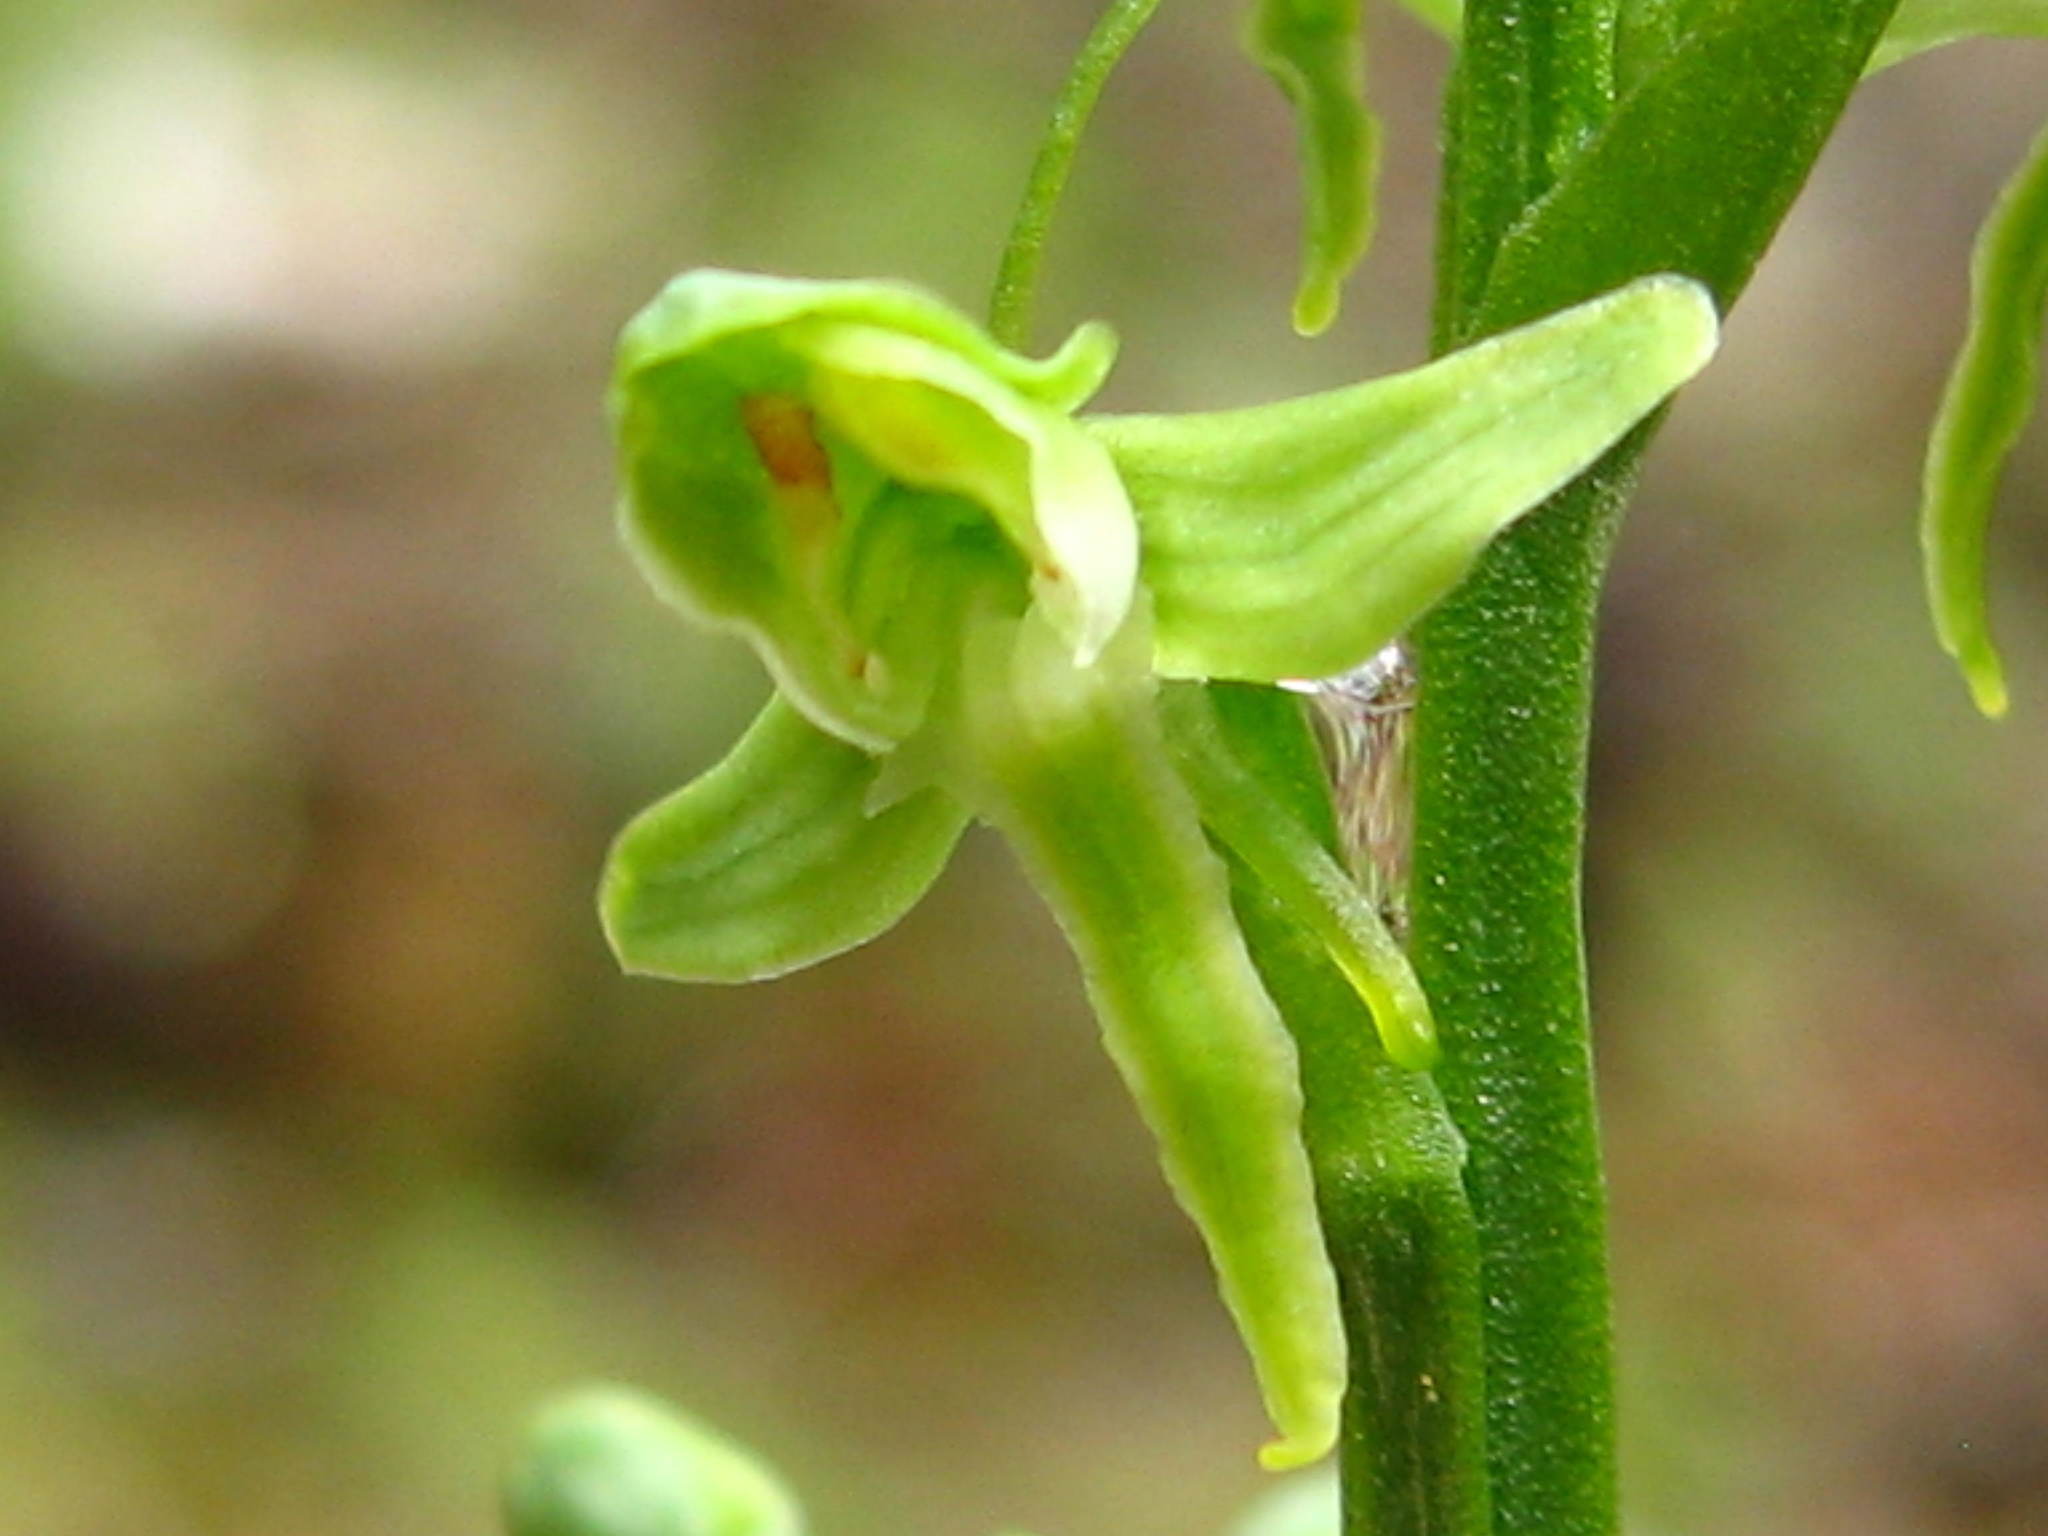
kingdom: Plantae
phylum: Tracheophyta
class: Liliopsida
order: Asparagales
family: Orchidaceae
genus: Platanthera
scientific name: Platanthera obtusata
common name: Blunt bog orchid
